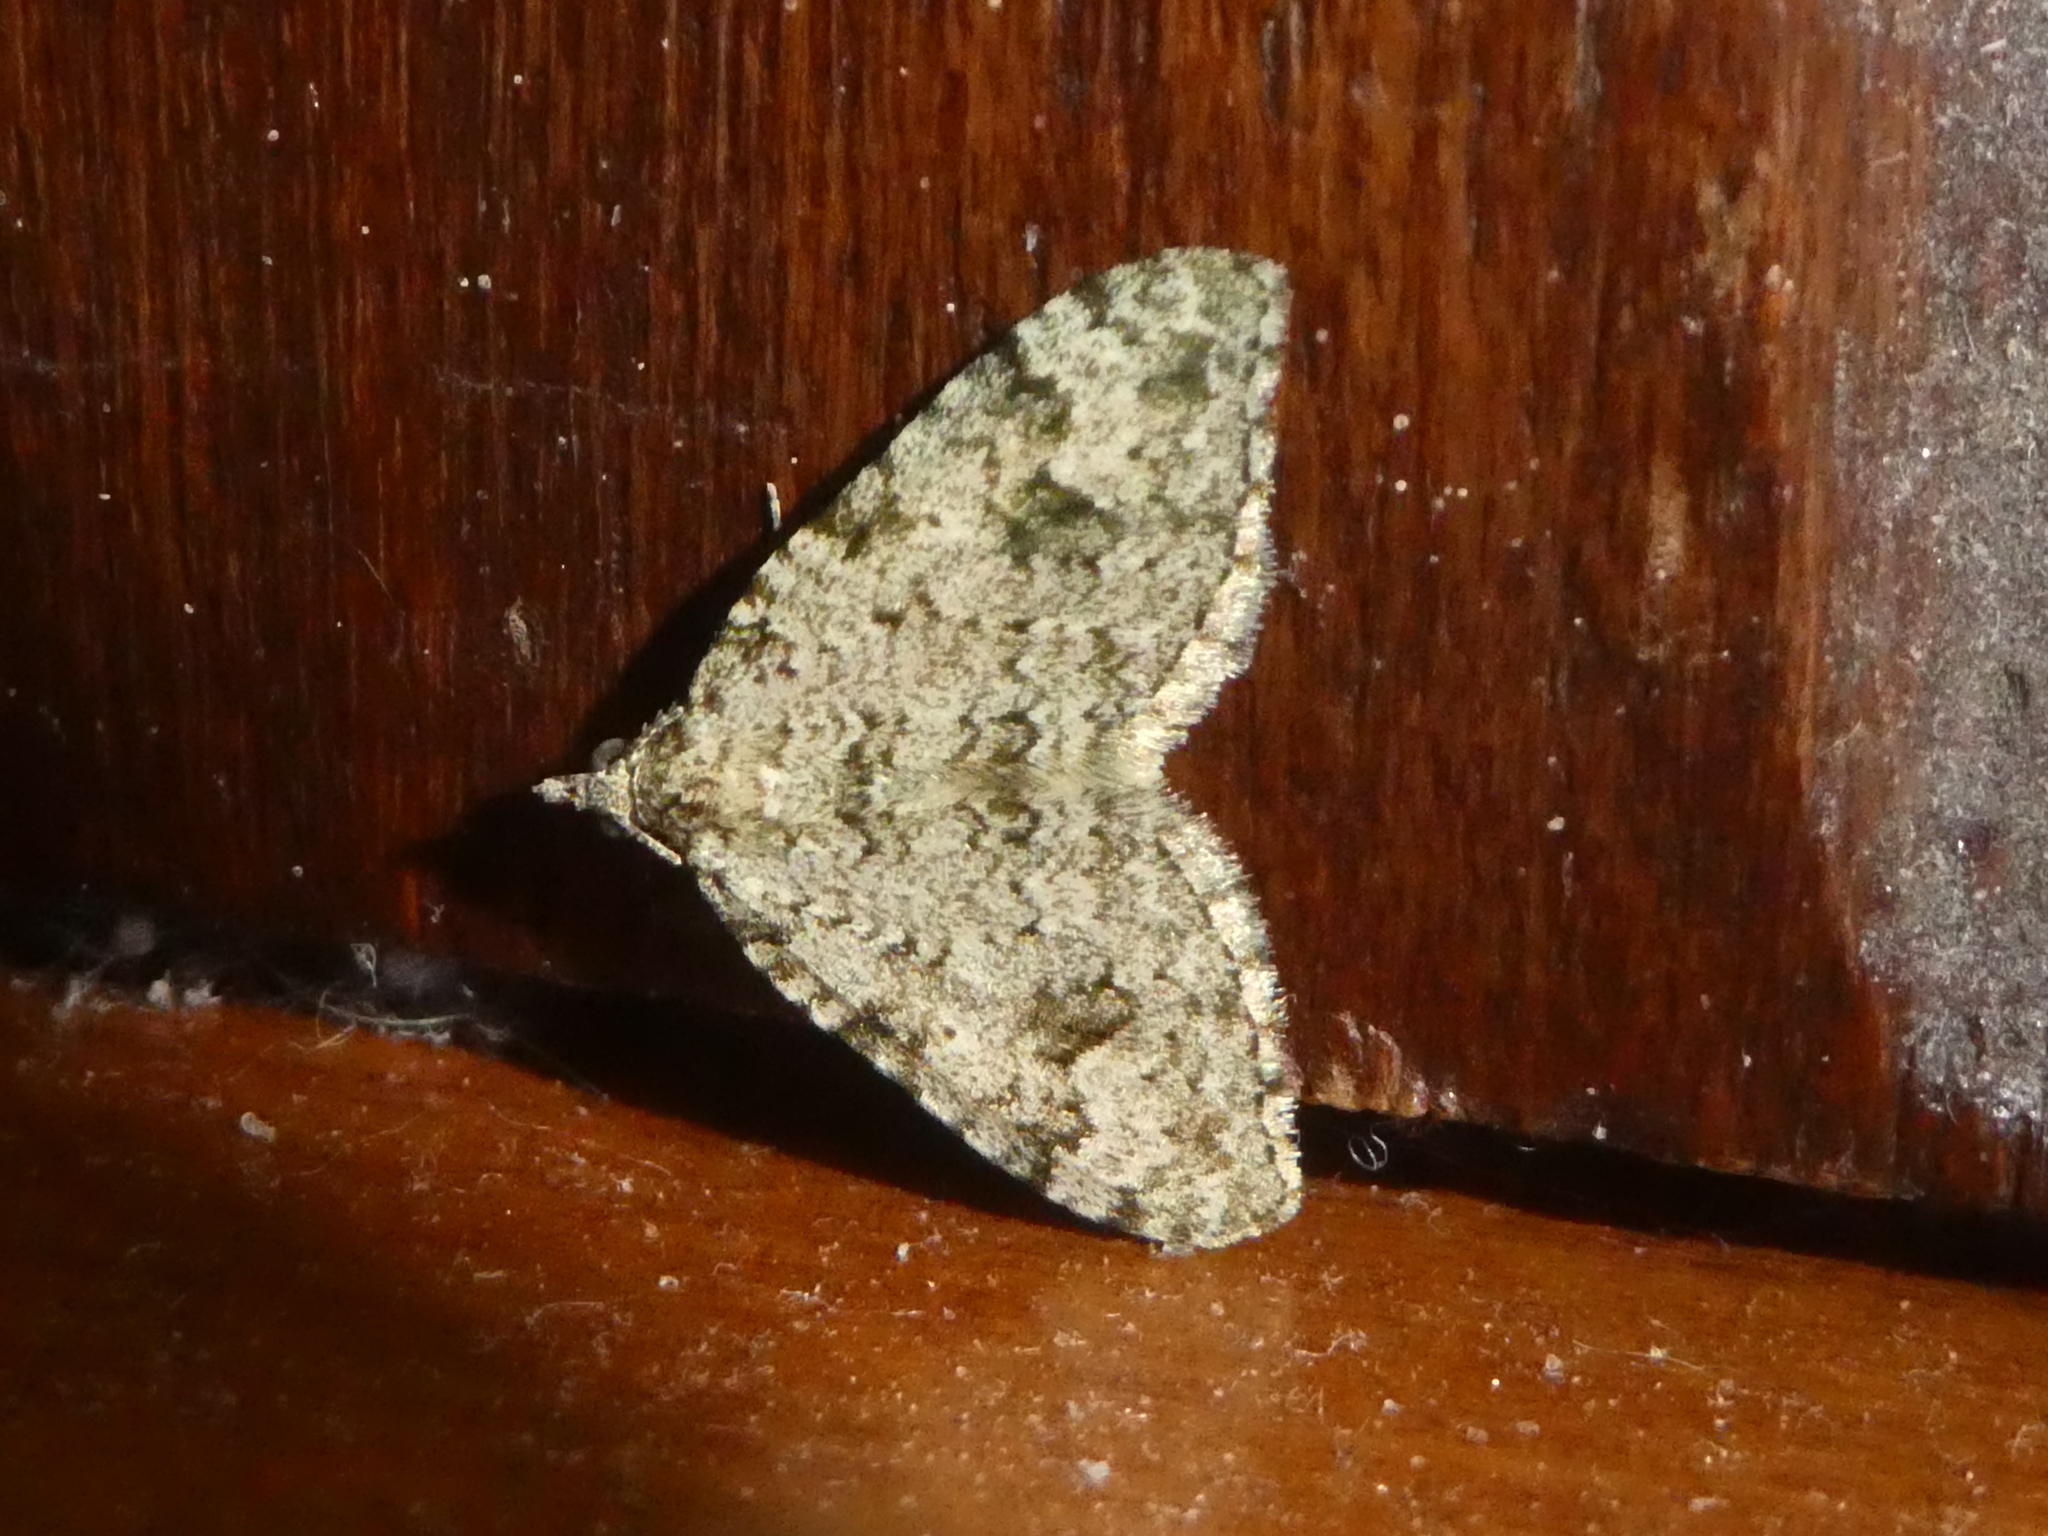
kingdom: Animalia
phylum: Arthropoda
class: Insecta
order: Lepidoptera
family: Geometridae
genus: Helastia
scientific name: Helastia cinerearia
